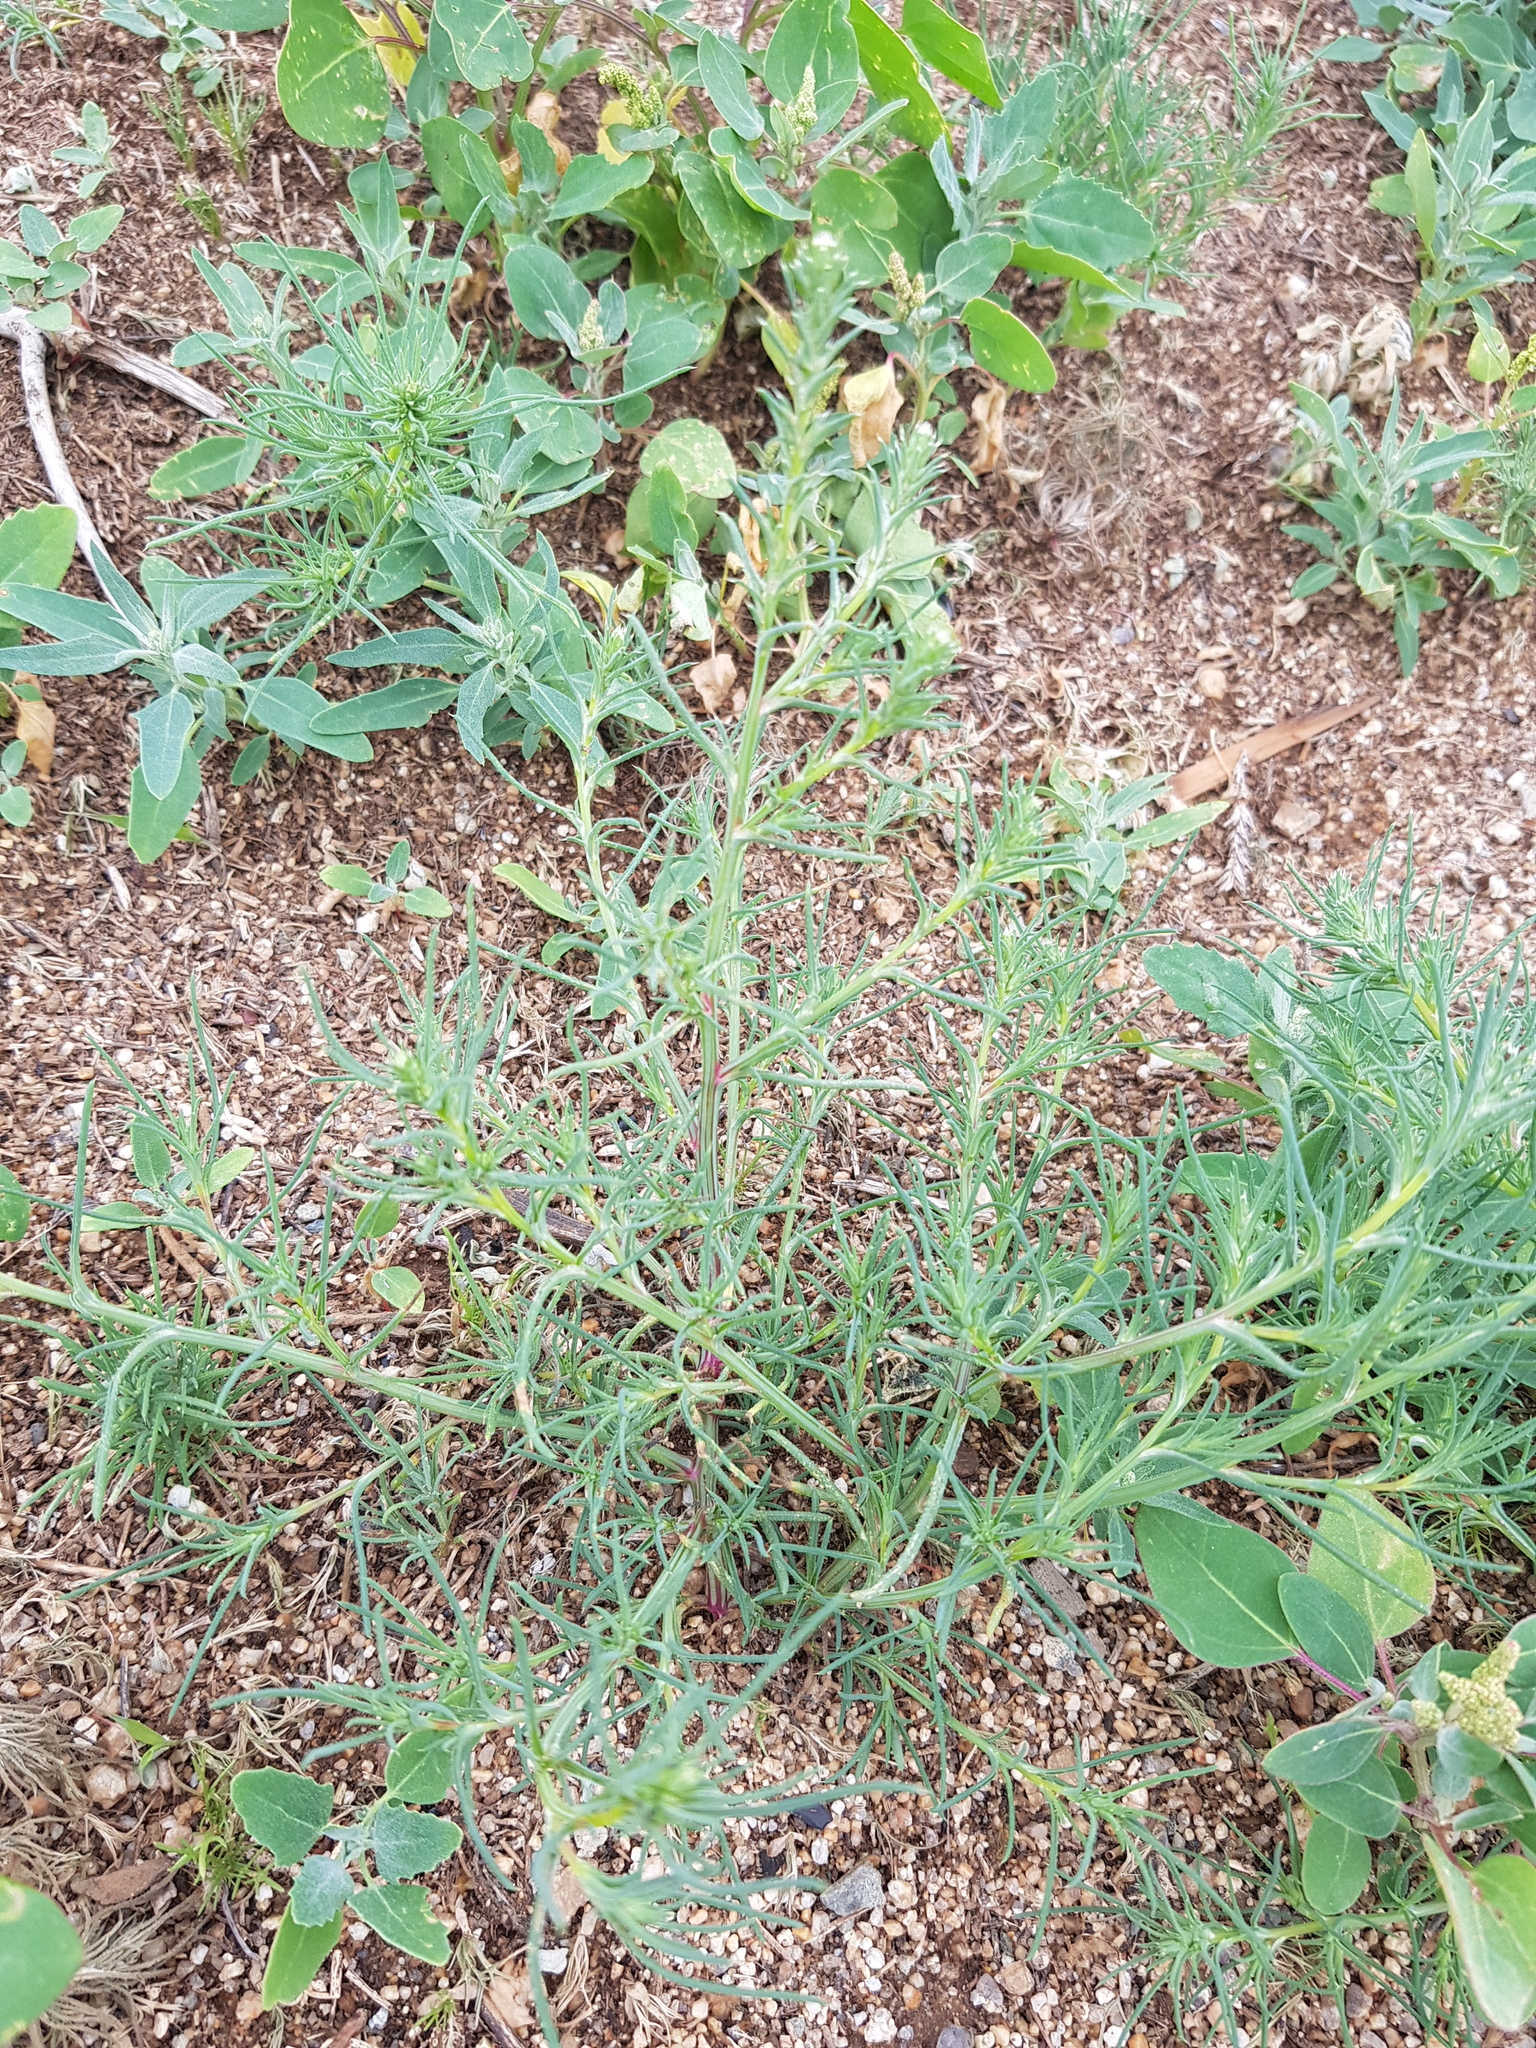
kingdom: Plantae
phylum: Tracheophyta
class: Magnoliopsida
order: Caryophyllales
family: Amaranthaceae
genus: Salsola
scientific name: Salsola collina
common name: Tumbleweed
